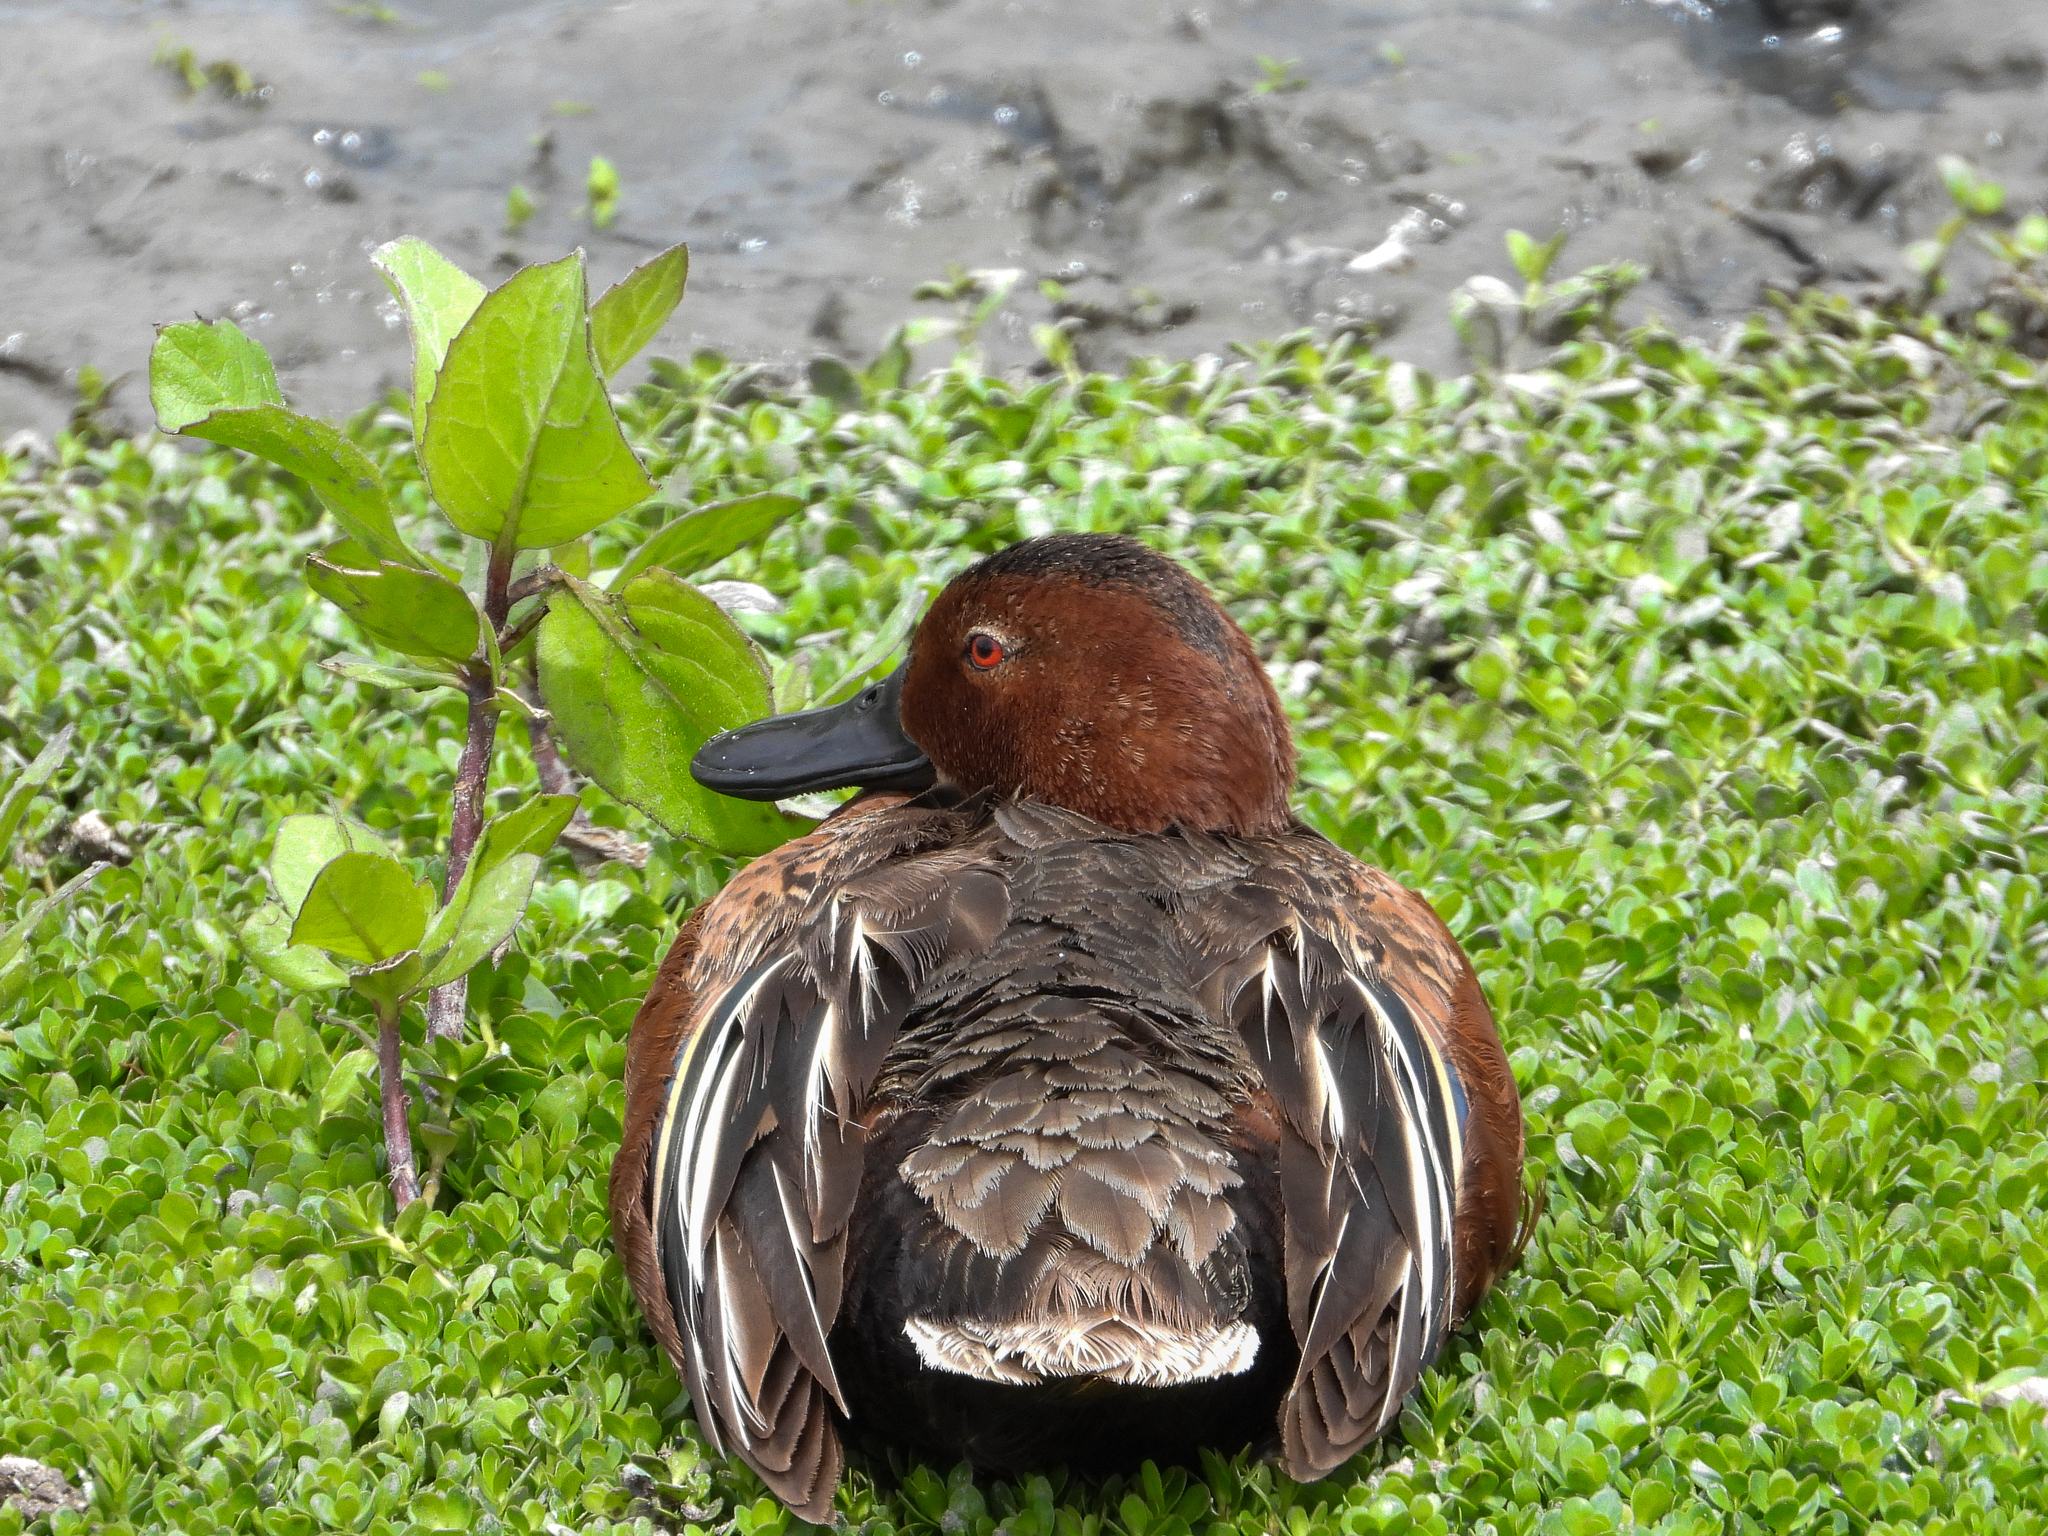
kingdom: Animalia
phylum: Chordata
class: Aves
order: Anseriformes
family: Anatidae
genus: Spatula
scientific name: Spatula cyanoptera
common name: Cinnamon teal
